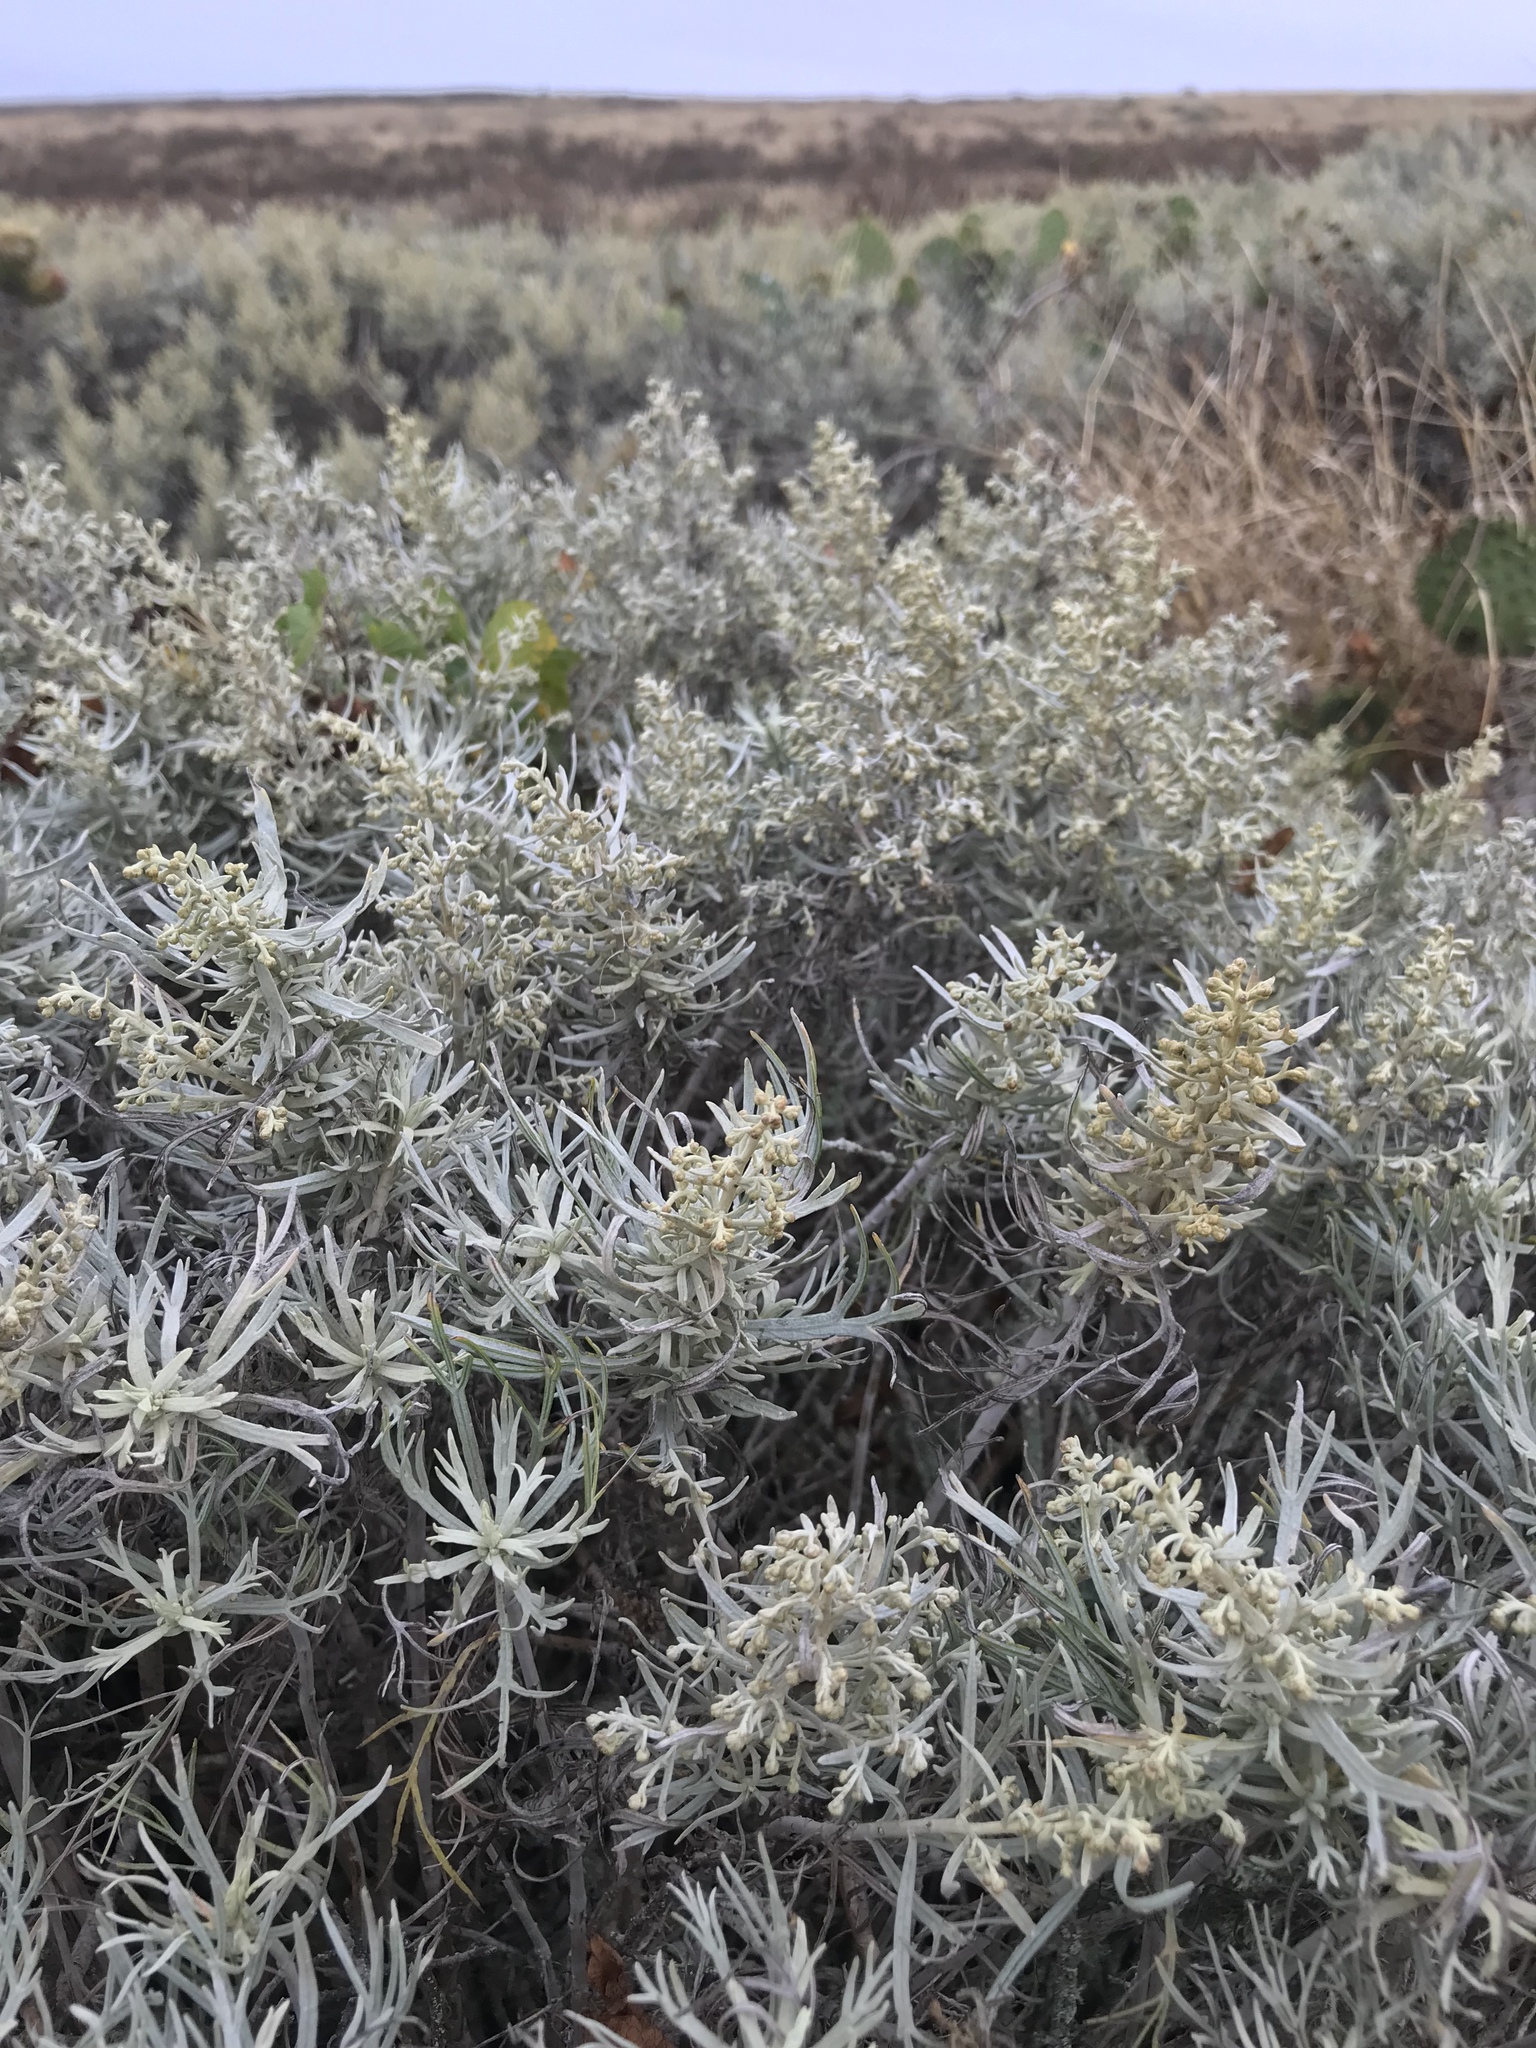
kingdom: Plantae
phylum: Tracheophyta
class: Magnoliopsida
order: Asterales
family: Asteraceae
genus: Artemisia
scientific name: Artemisia nesiotica
